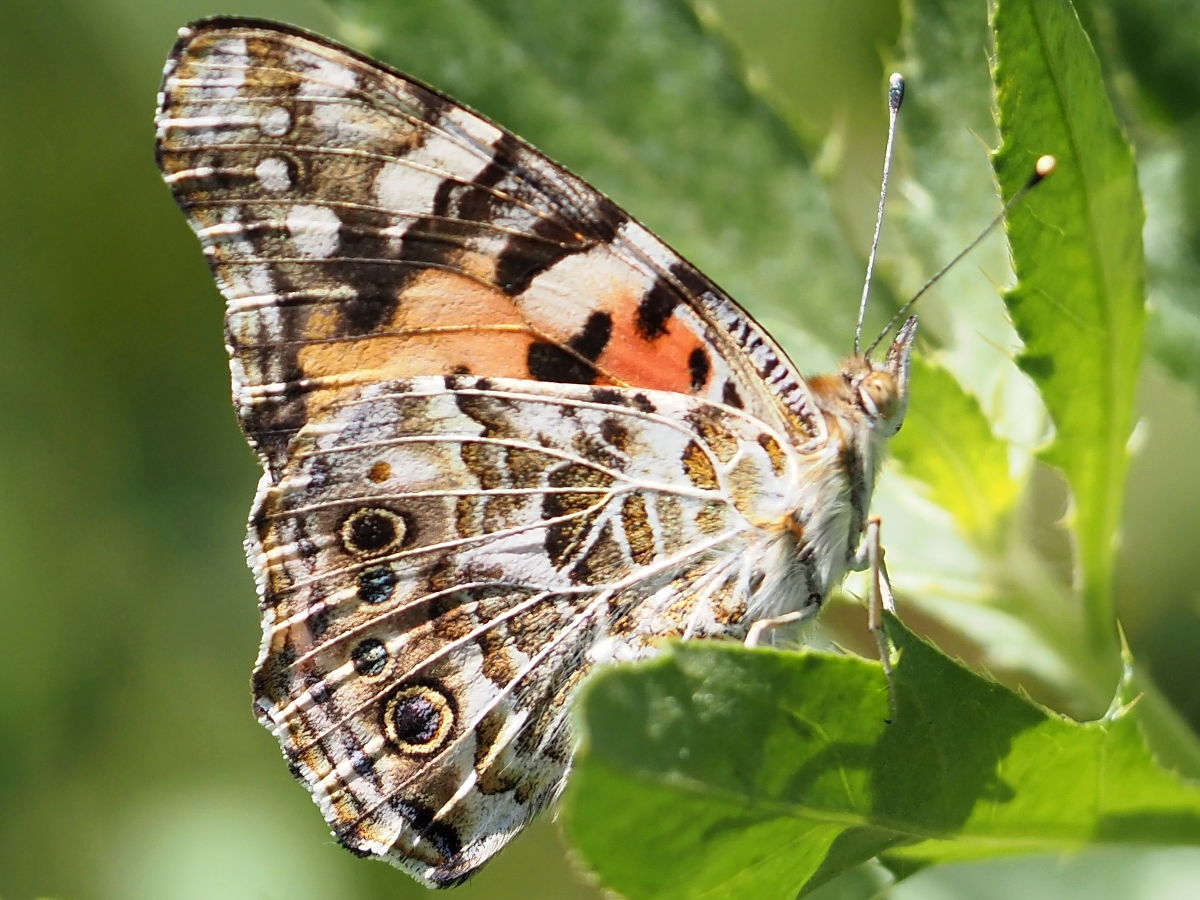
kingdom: Animalia
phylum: Arthropoda
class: Insecta
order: Lepidoptera
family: Nymphalidae
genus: Vanessa
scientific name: Vanessa cardui
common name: Painted lady
